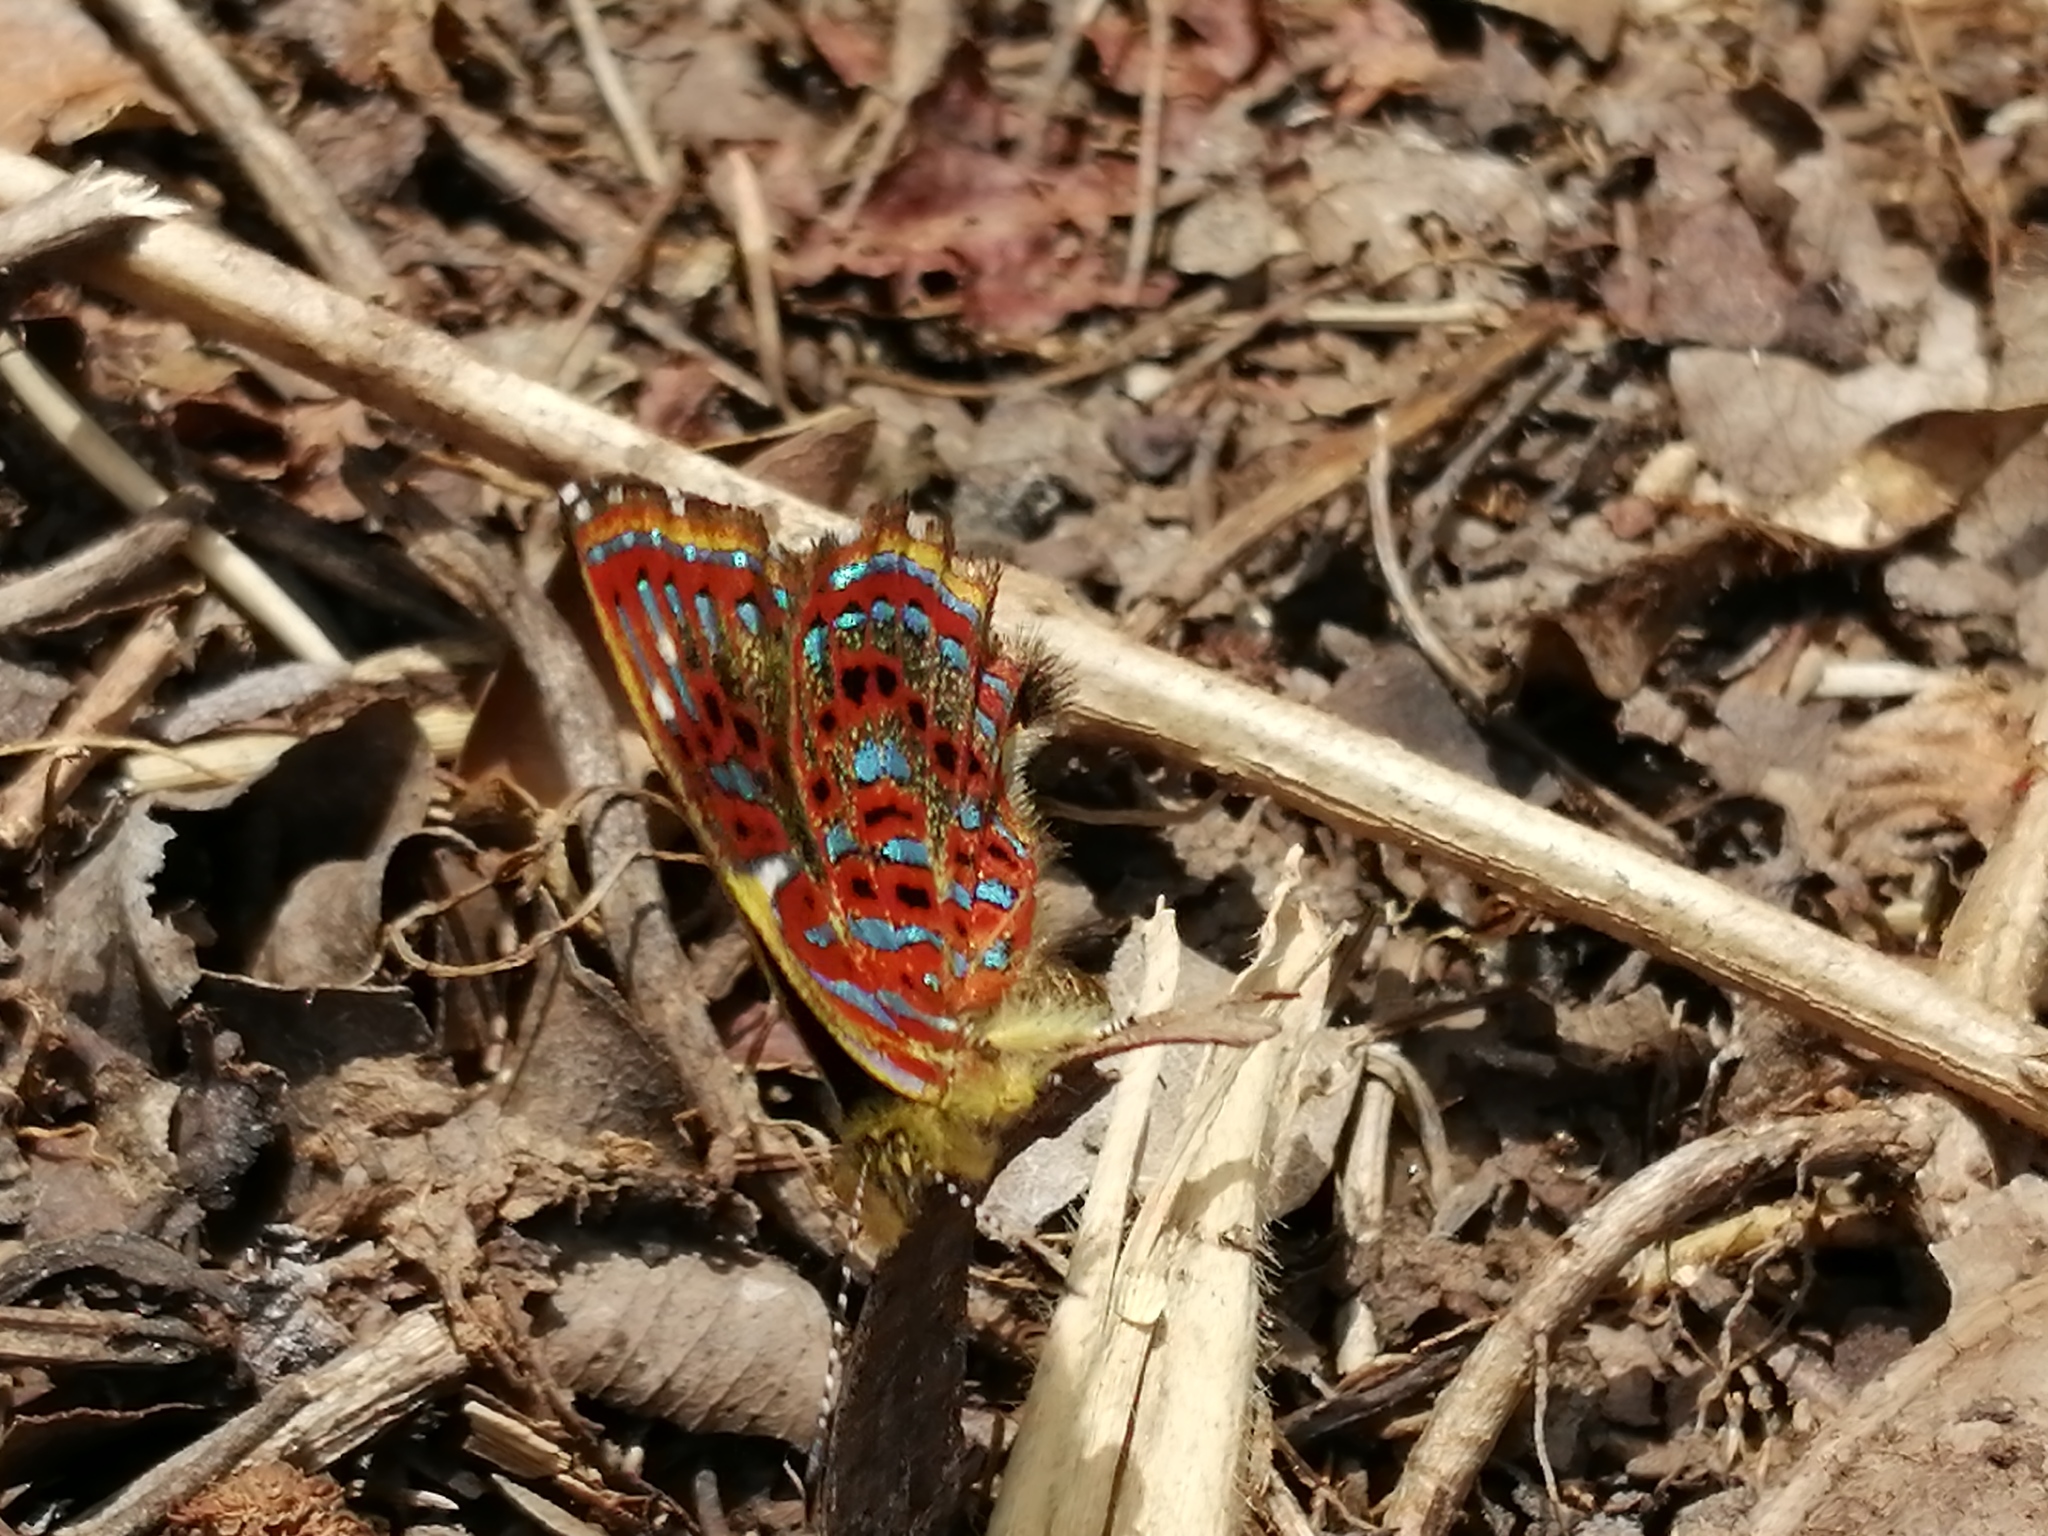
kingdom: Animalia
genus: Charis
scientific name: Charis estrada
